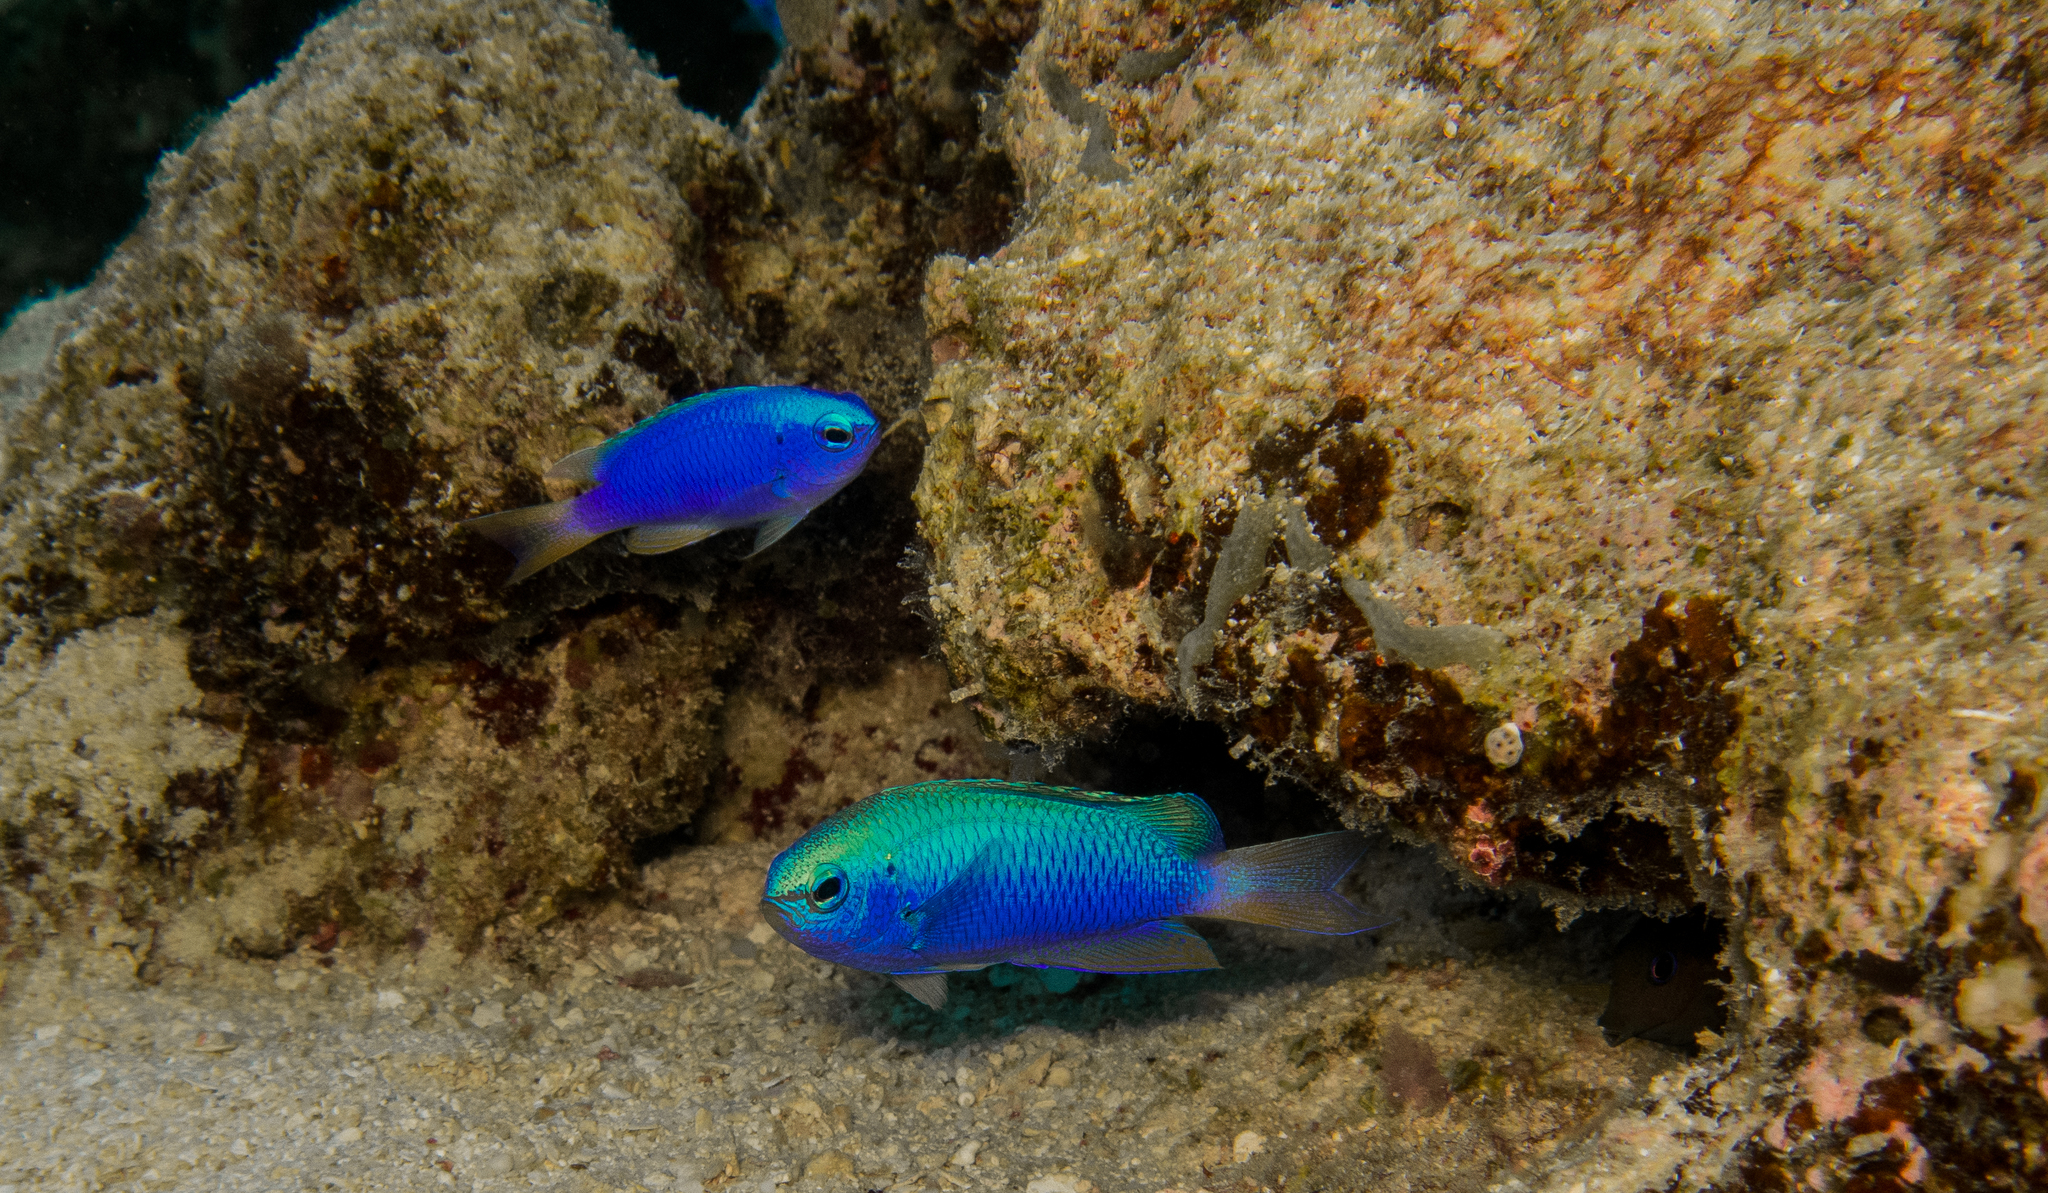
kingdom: Animalia
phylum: Chordata
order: Perciformes
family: Pomacentridae
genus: Pomacentrus
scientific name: Pomacentrus coelestis
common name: Neon damsel
